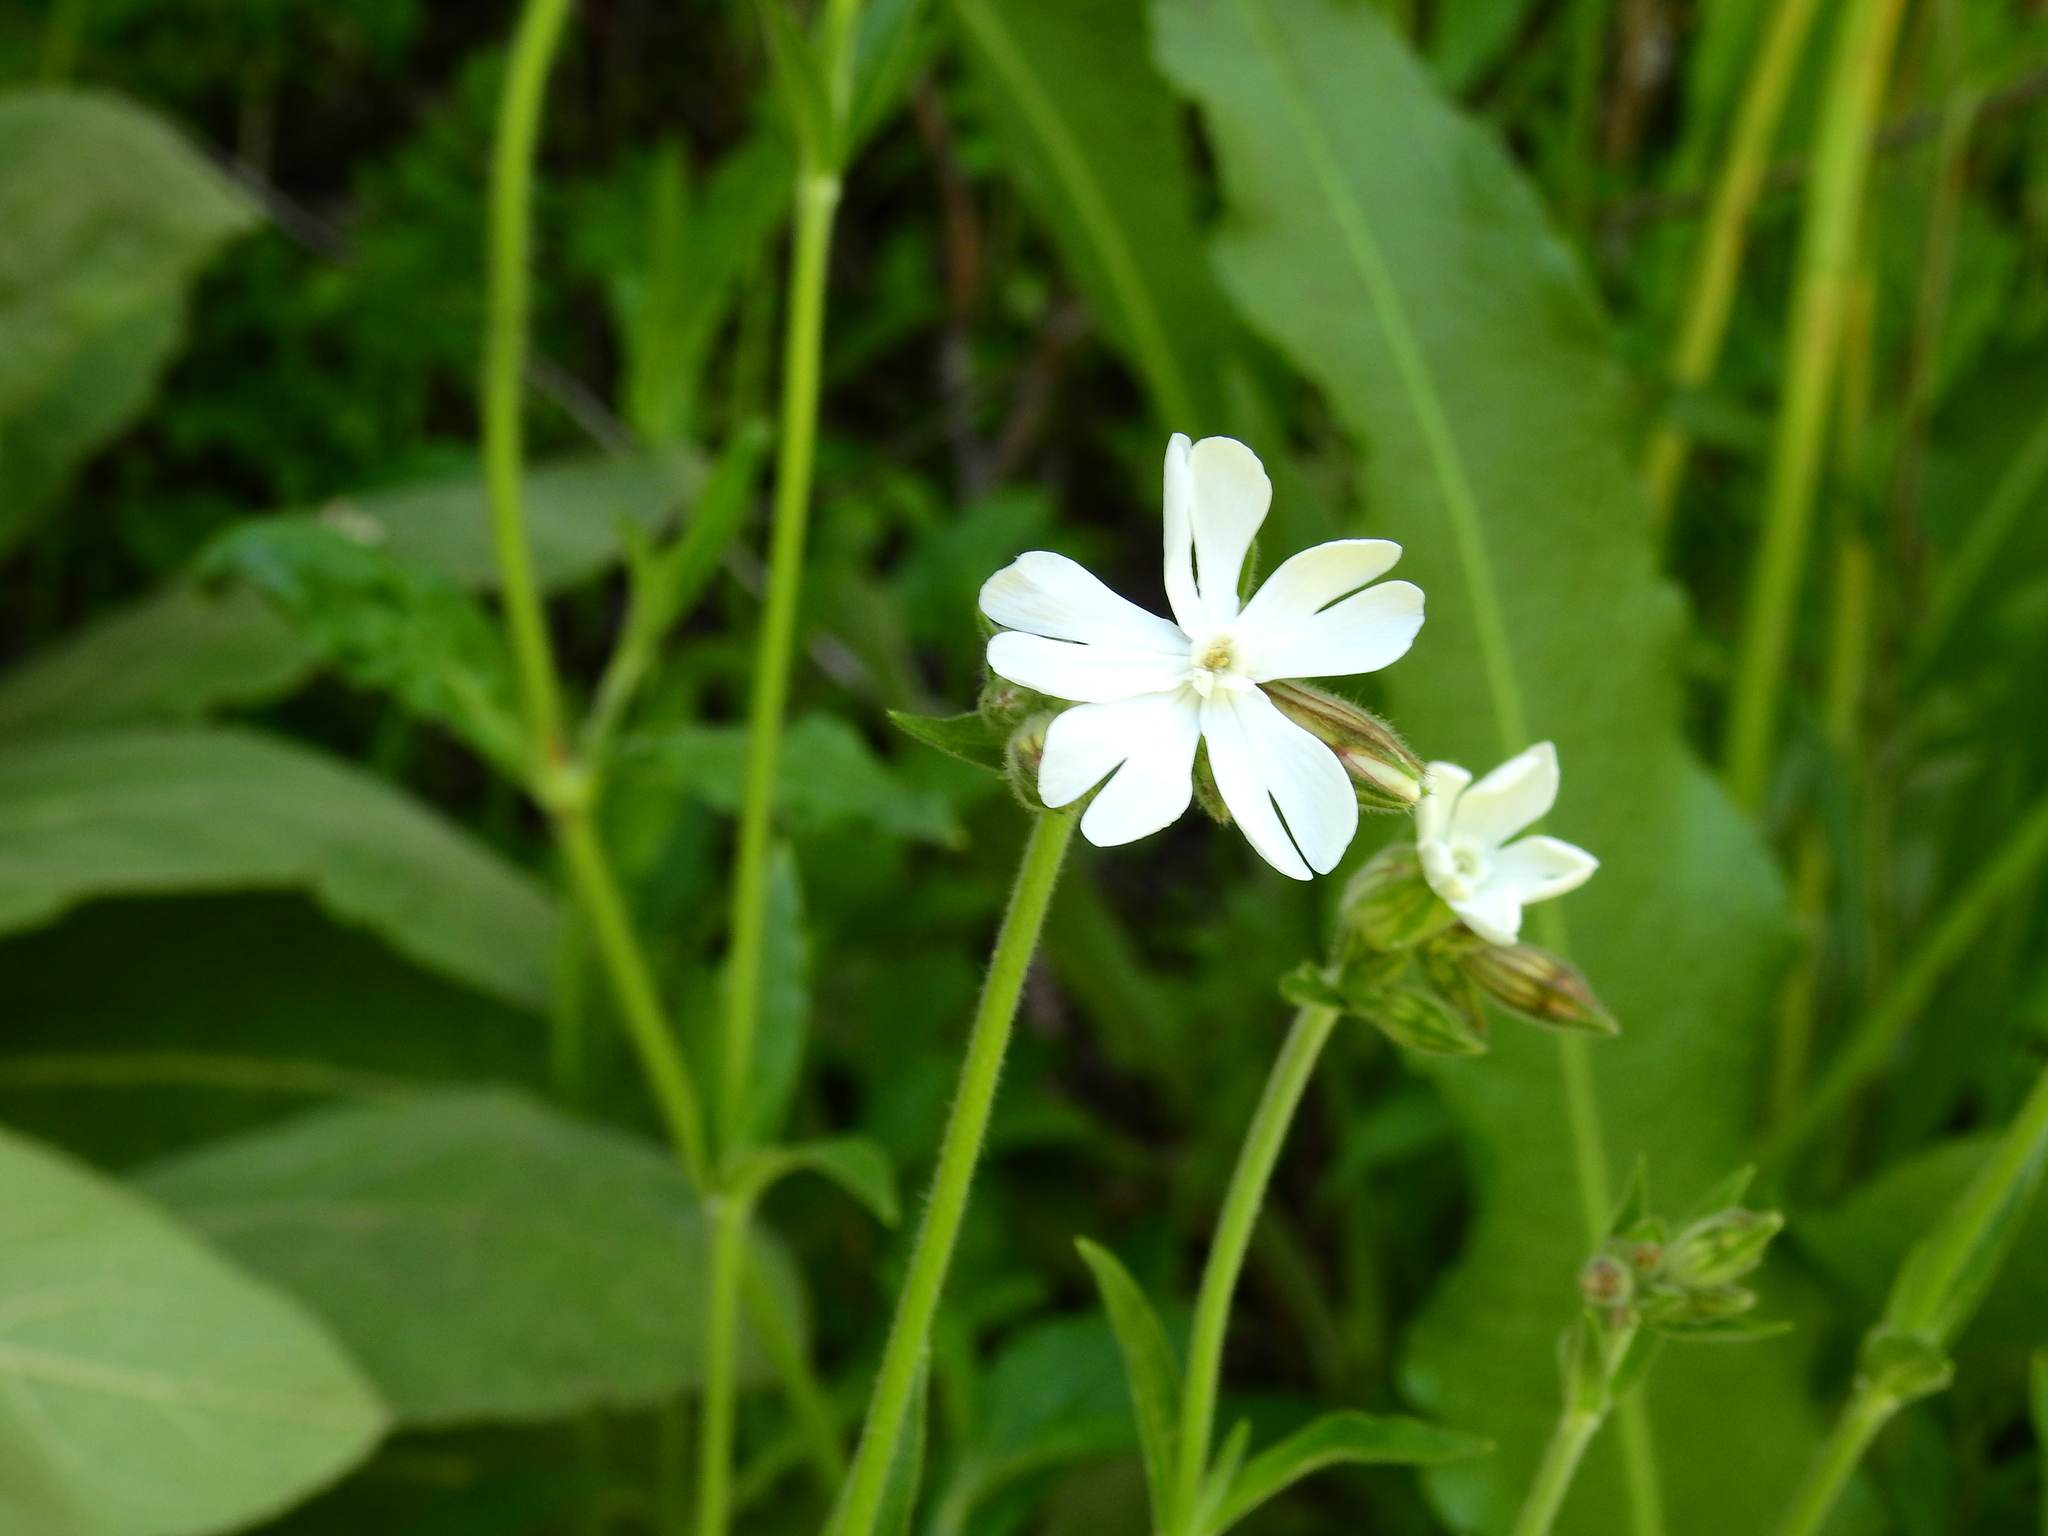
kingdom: Plantae
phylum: Tracheophyta
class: Magnoliopsida
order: Caryophyllales
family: Caryophyllaceae
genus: Silene
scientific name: Silene latifolia
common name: White campion
